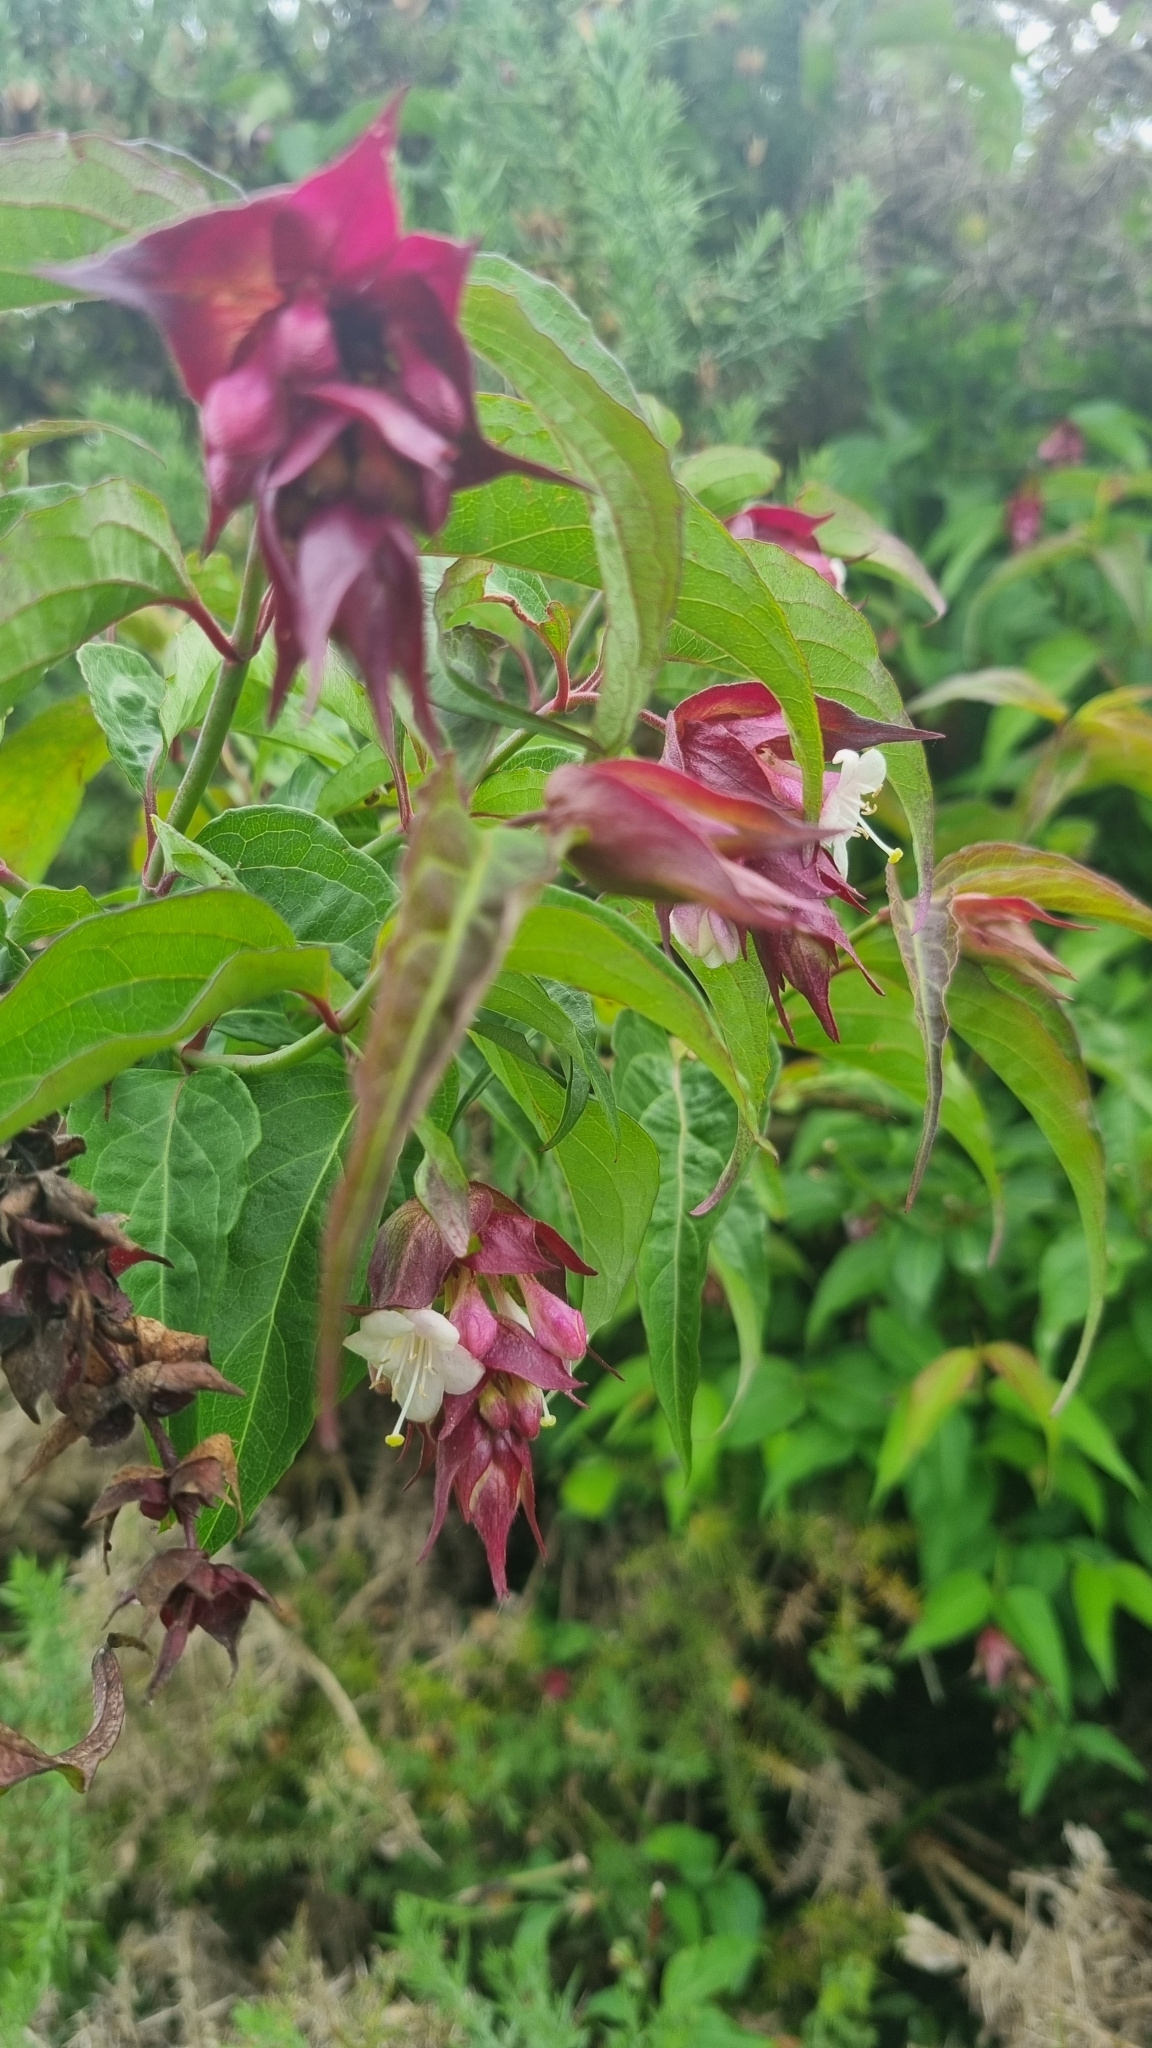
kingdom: Plantae
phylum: Tracheophyta
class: Magnoliopsida
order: Dipsacales
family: Caprifoliaceae
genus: Leycesteria
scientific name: Leycesteria formosa
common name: Himalayan honeysuckle
